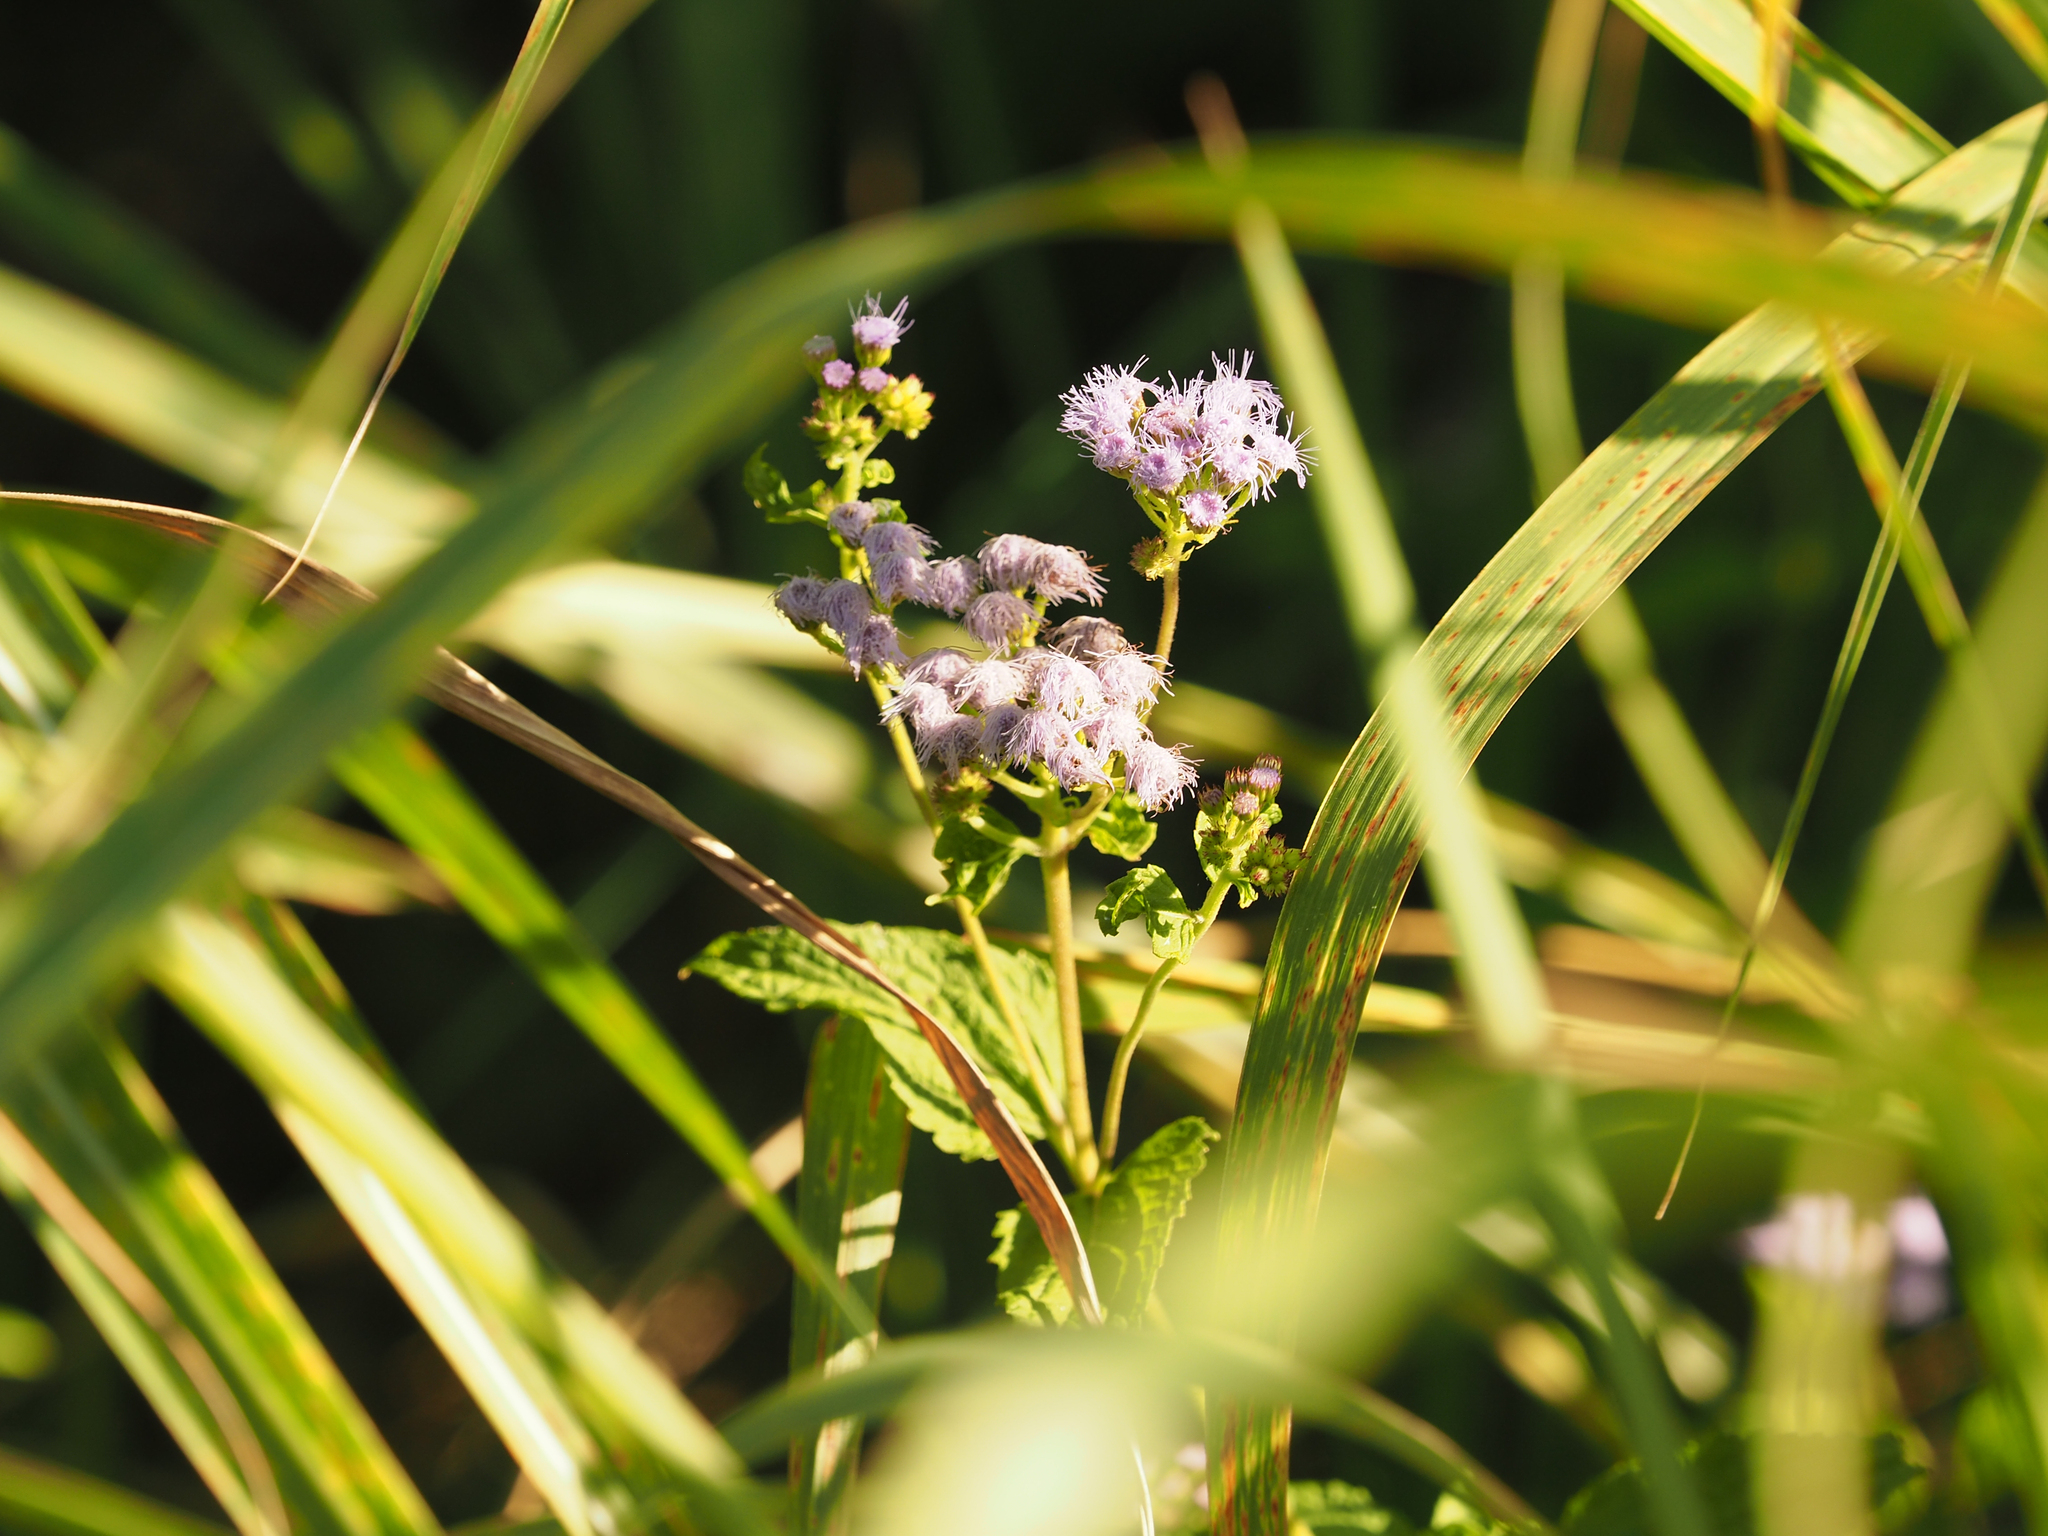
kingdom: Plantae
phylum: Tracheophyta
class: Magnoliopsida
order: Asterales
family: Asteraceae
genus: Conoclinium
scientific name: Conoclinium coelestinum
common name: Blue mistflower
